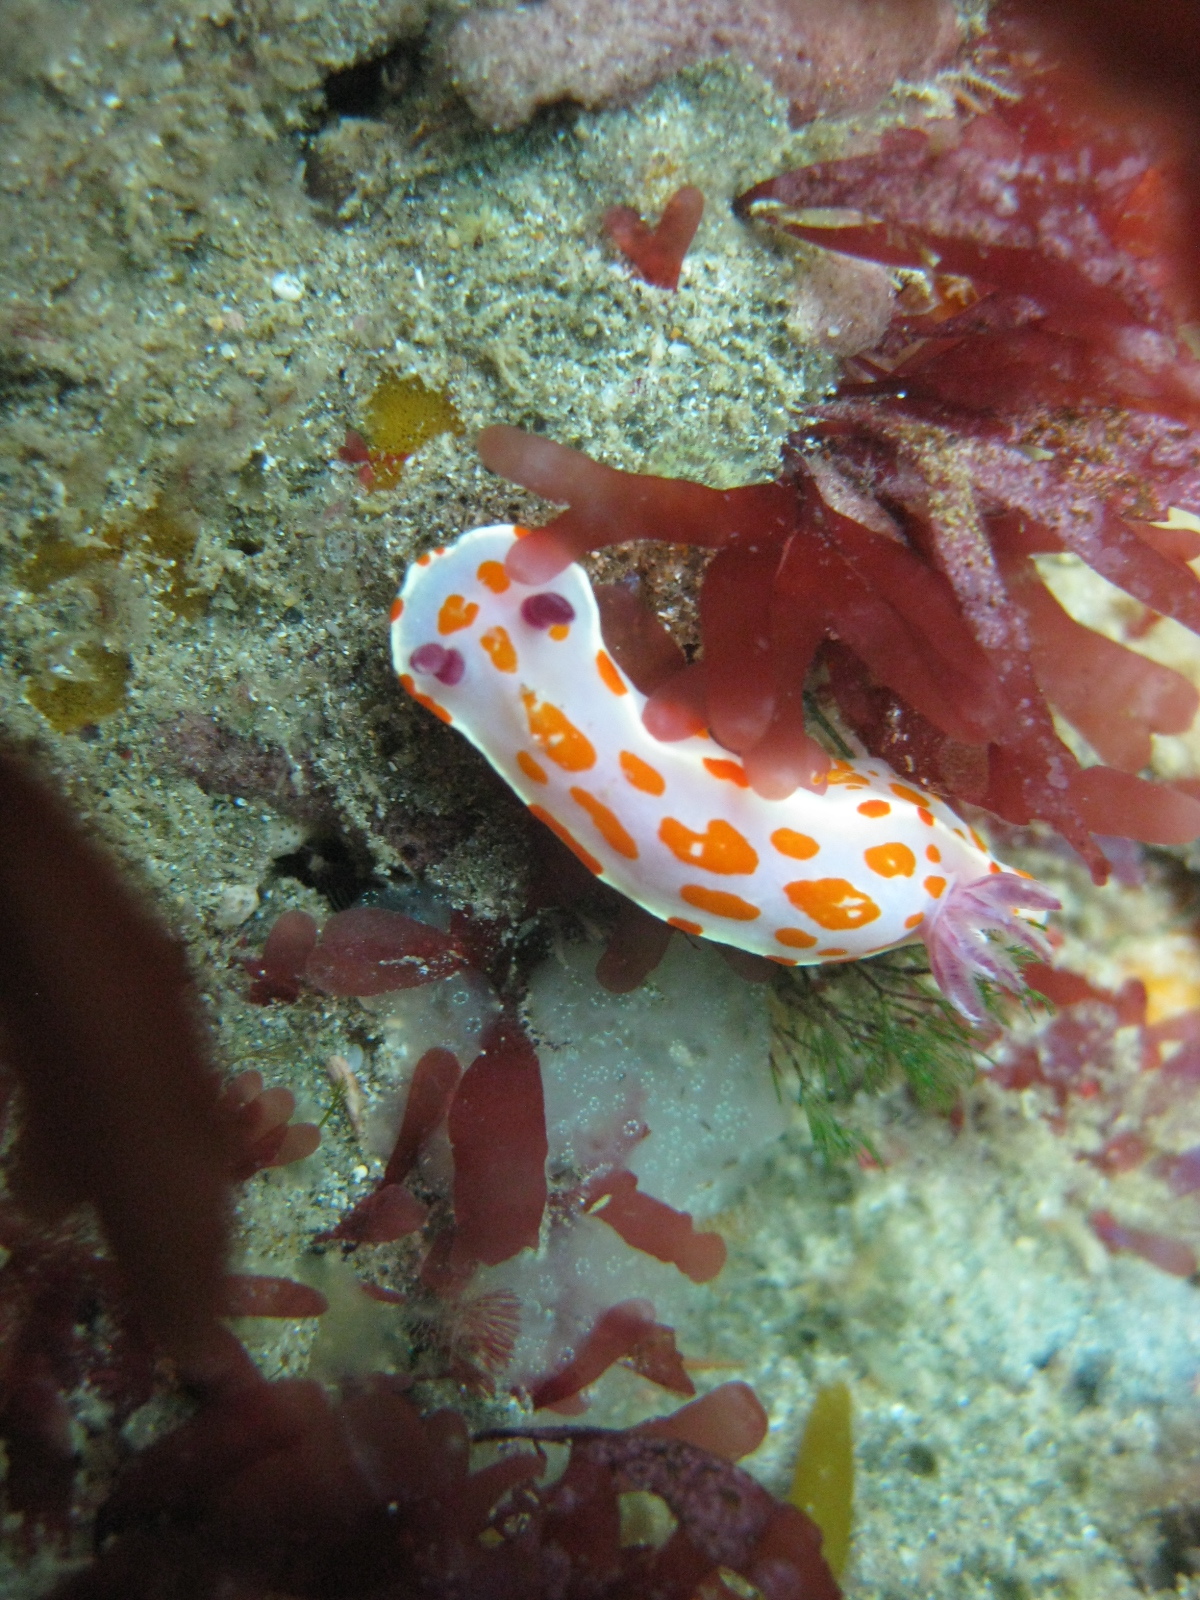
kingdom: Animalia
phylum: Mollusca
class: Gastropoda
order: Nudibranchia
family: Chromodorididae
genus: Ceratosoma
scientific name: Ceratosoma amoenum
